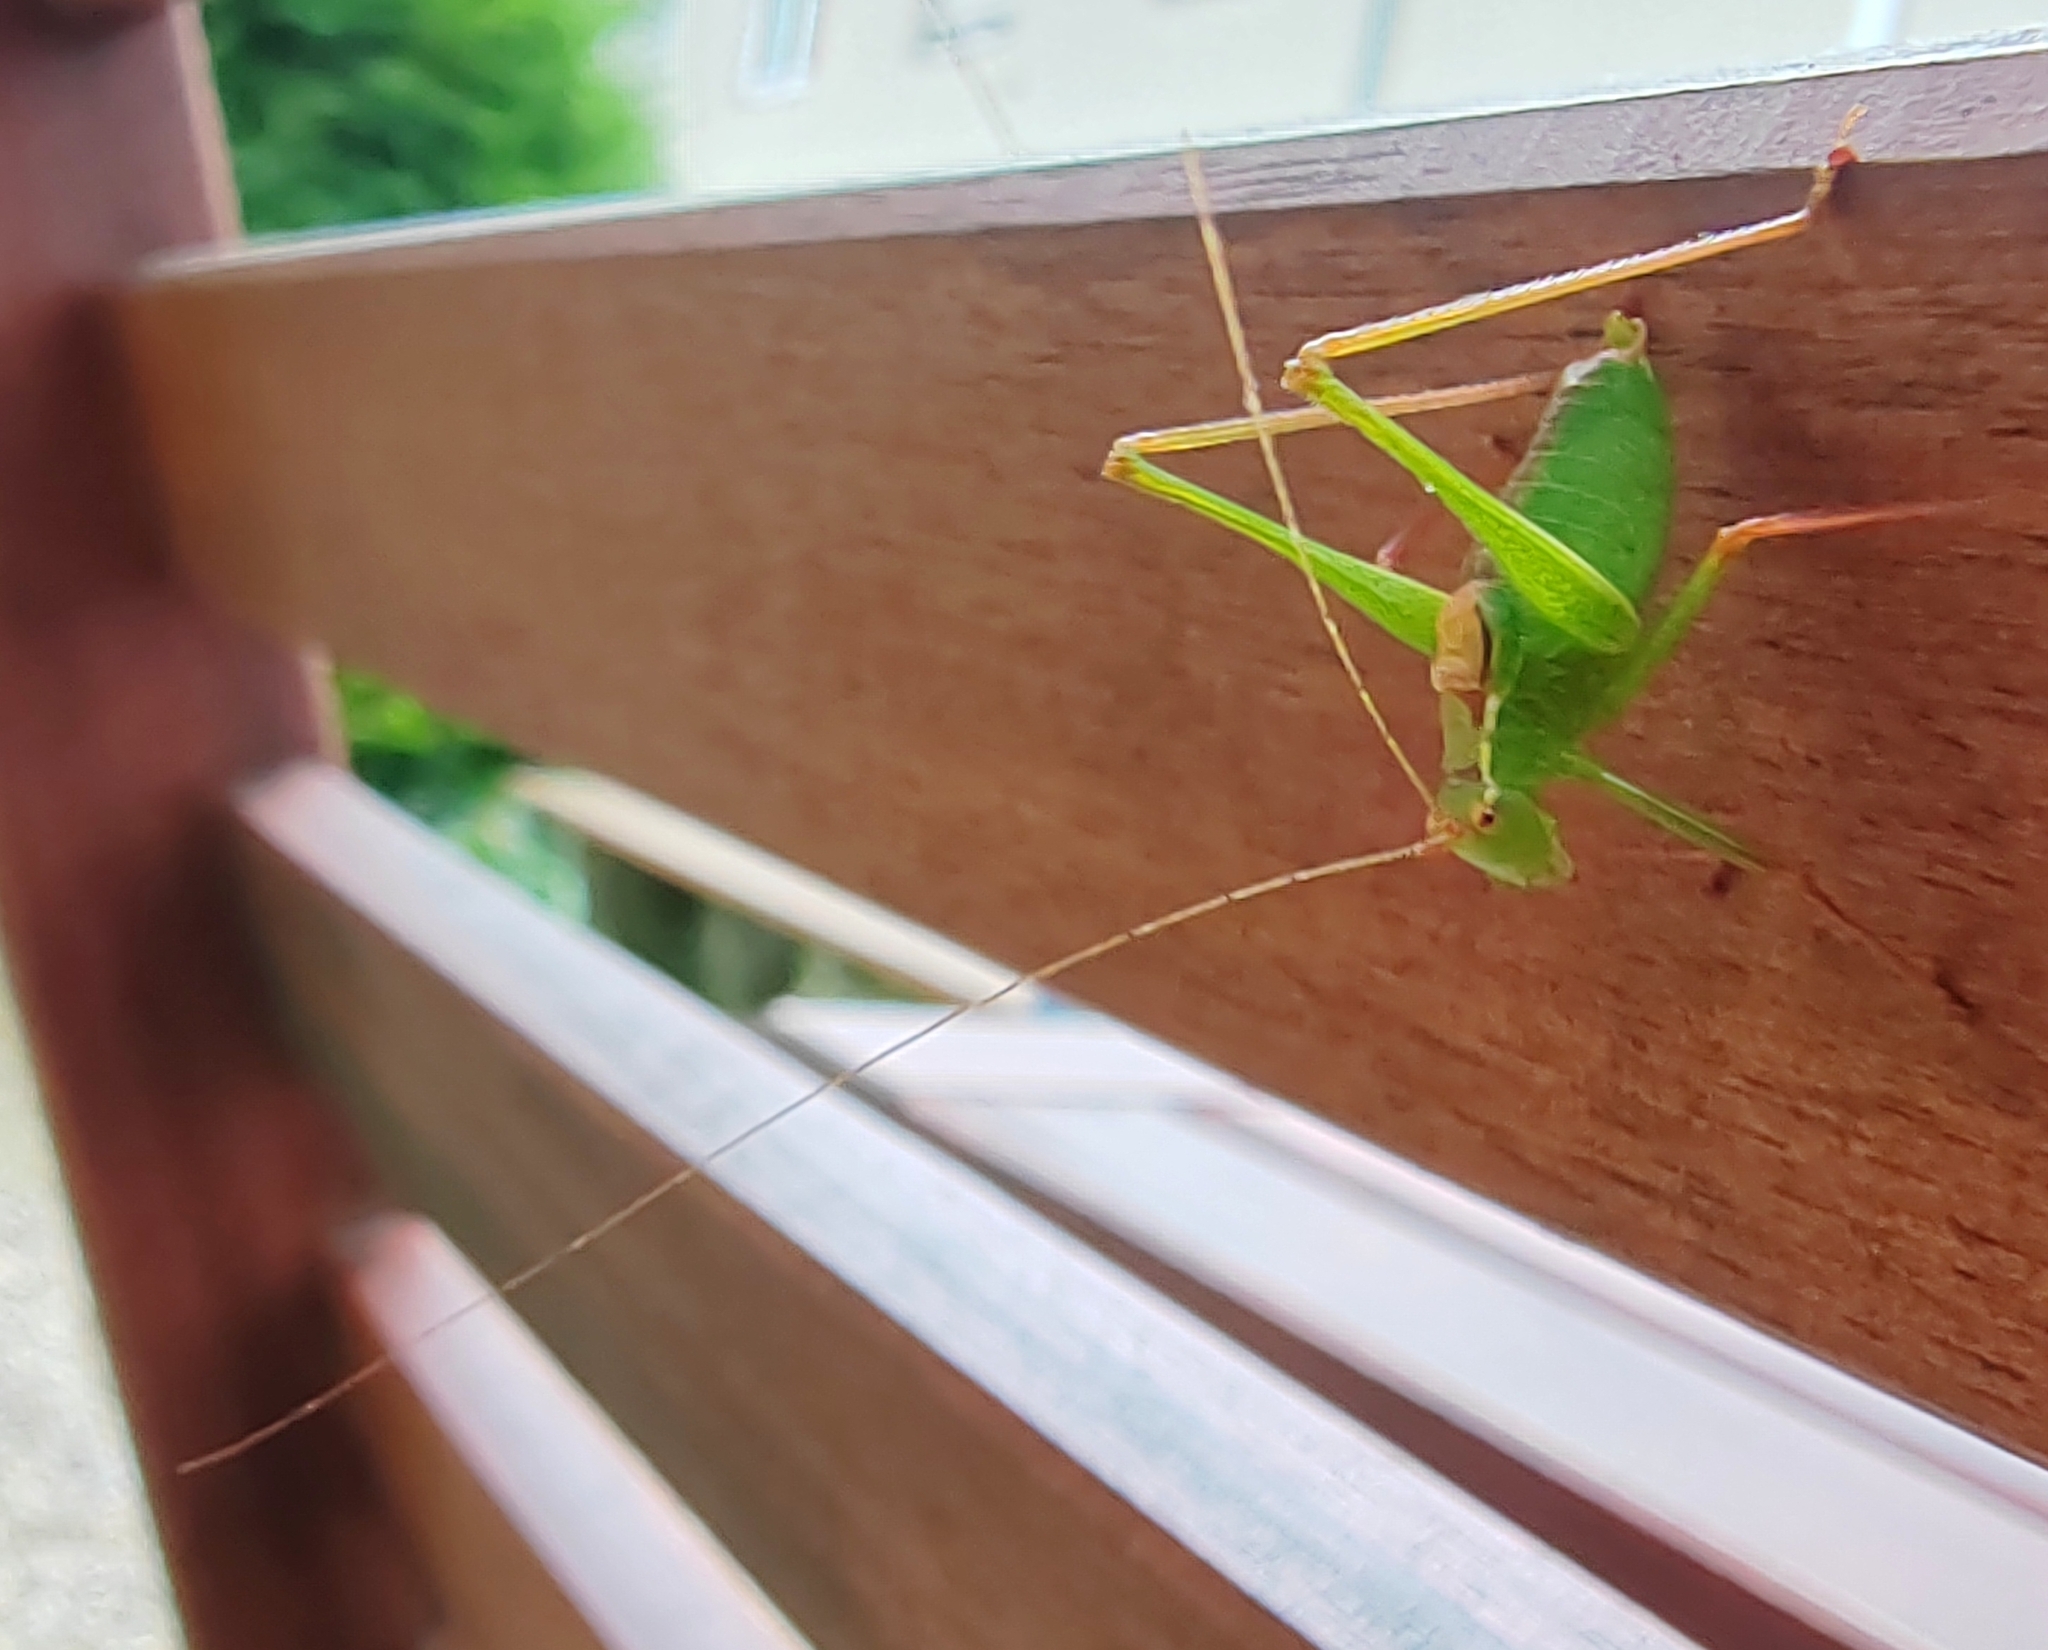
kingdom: Animalia
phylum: Arthropoda
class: Insecta
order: Orthoptera
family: Tettigoniidae
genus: Leptophyes
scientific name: Leptophyes punctatissima
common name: Speckled bush-cricket
